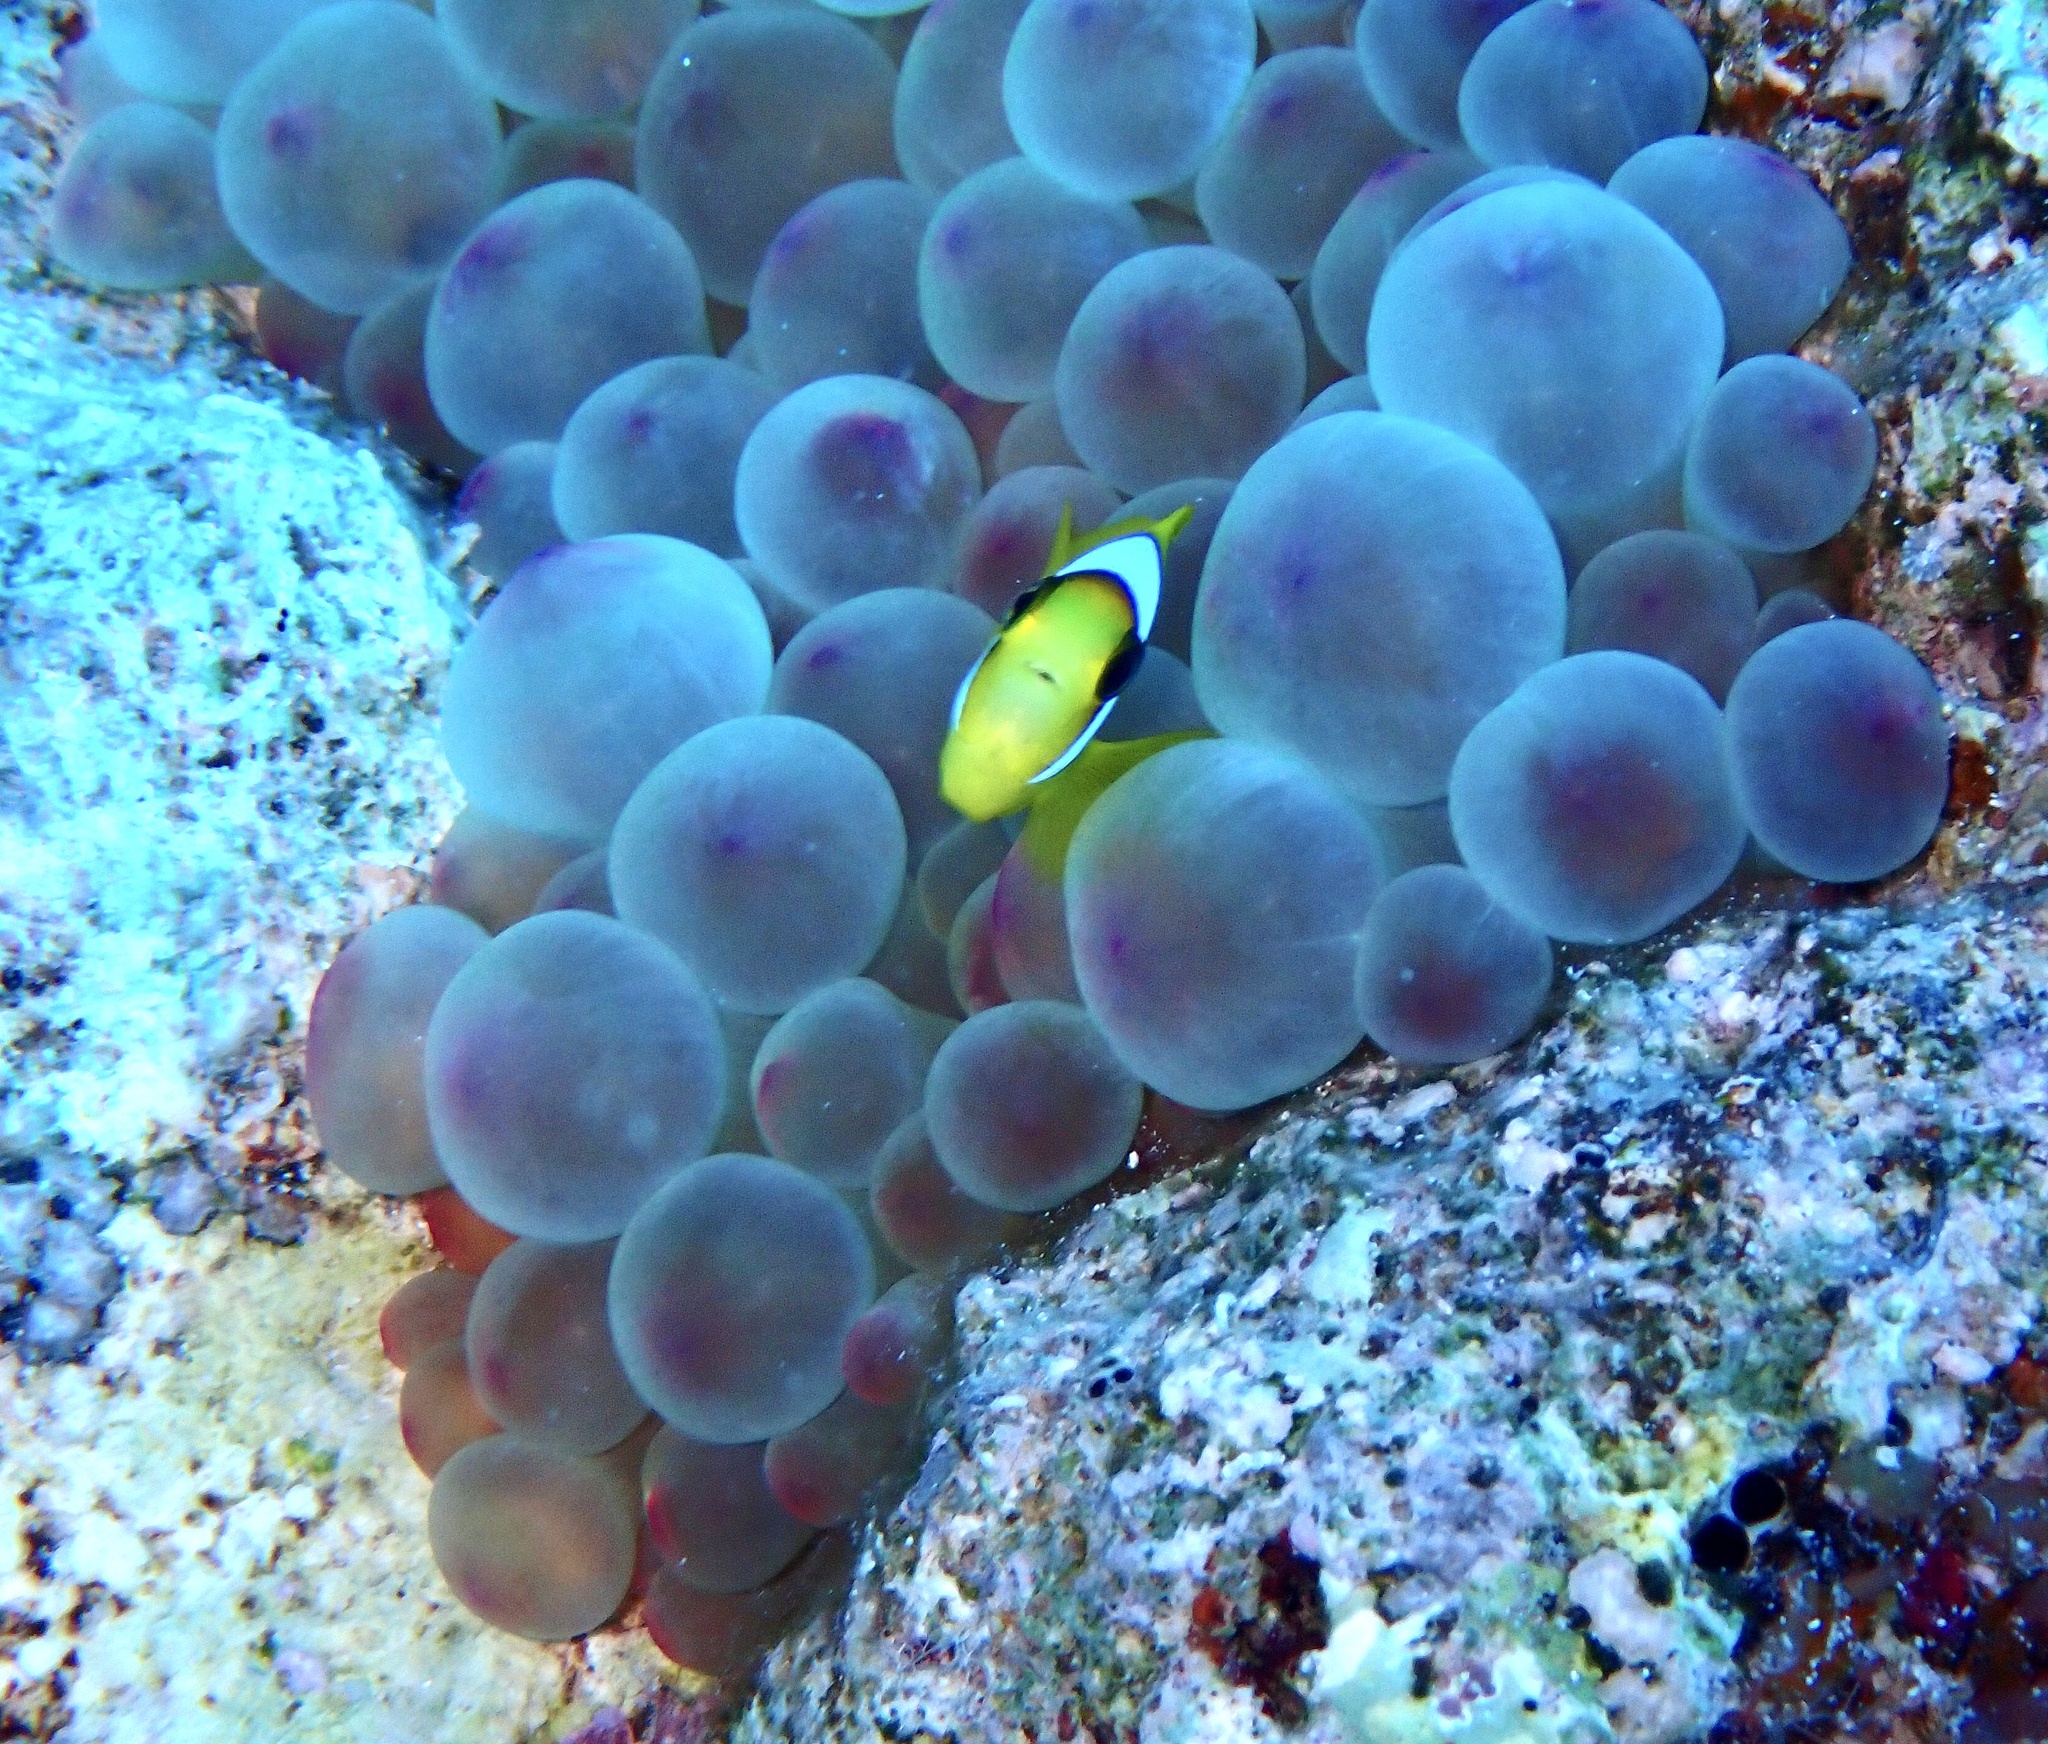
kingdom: Animalia
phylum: Chordata
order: Perciformes
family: Pomacentridae
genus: Amphiprion
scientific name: Amphiprion bicinctus
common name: Two-banded anemonefish
